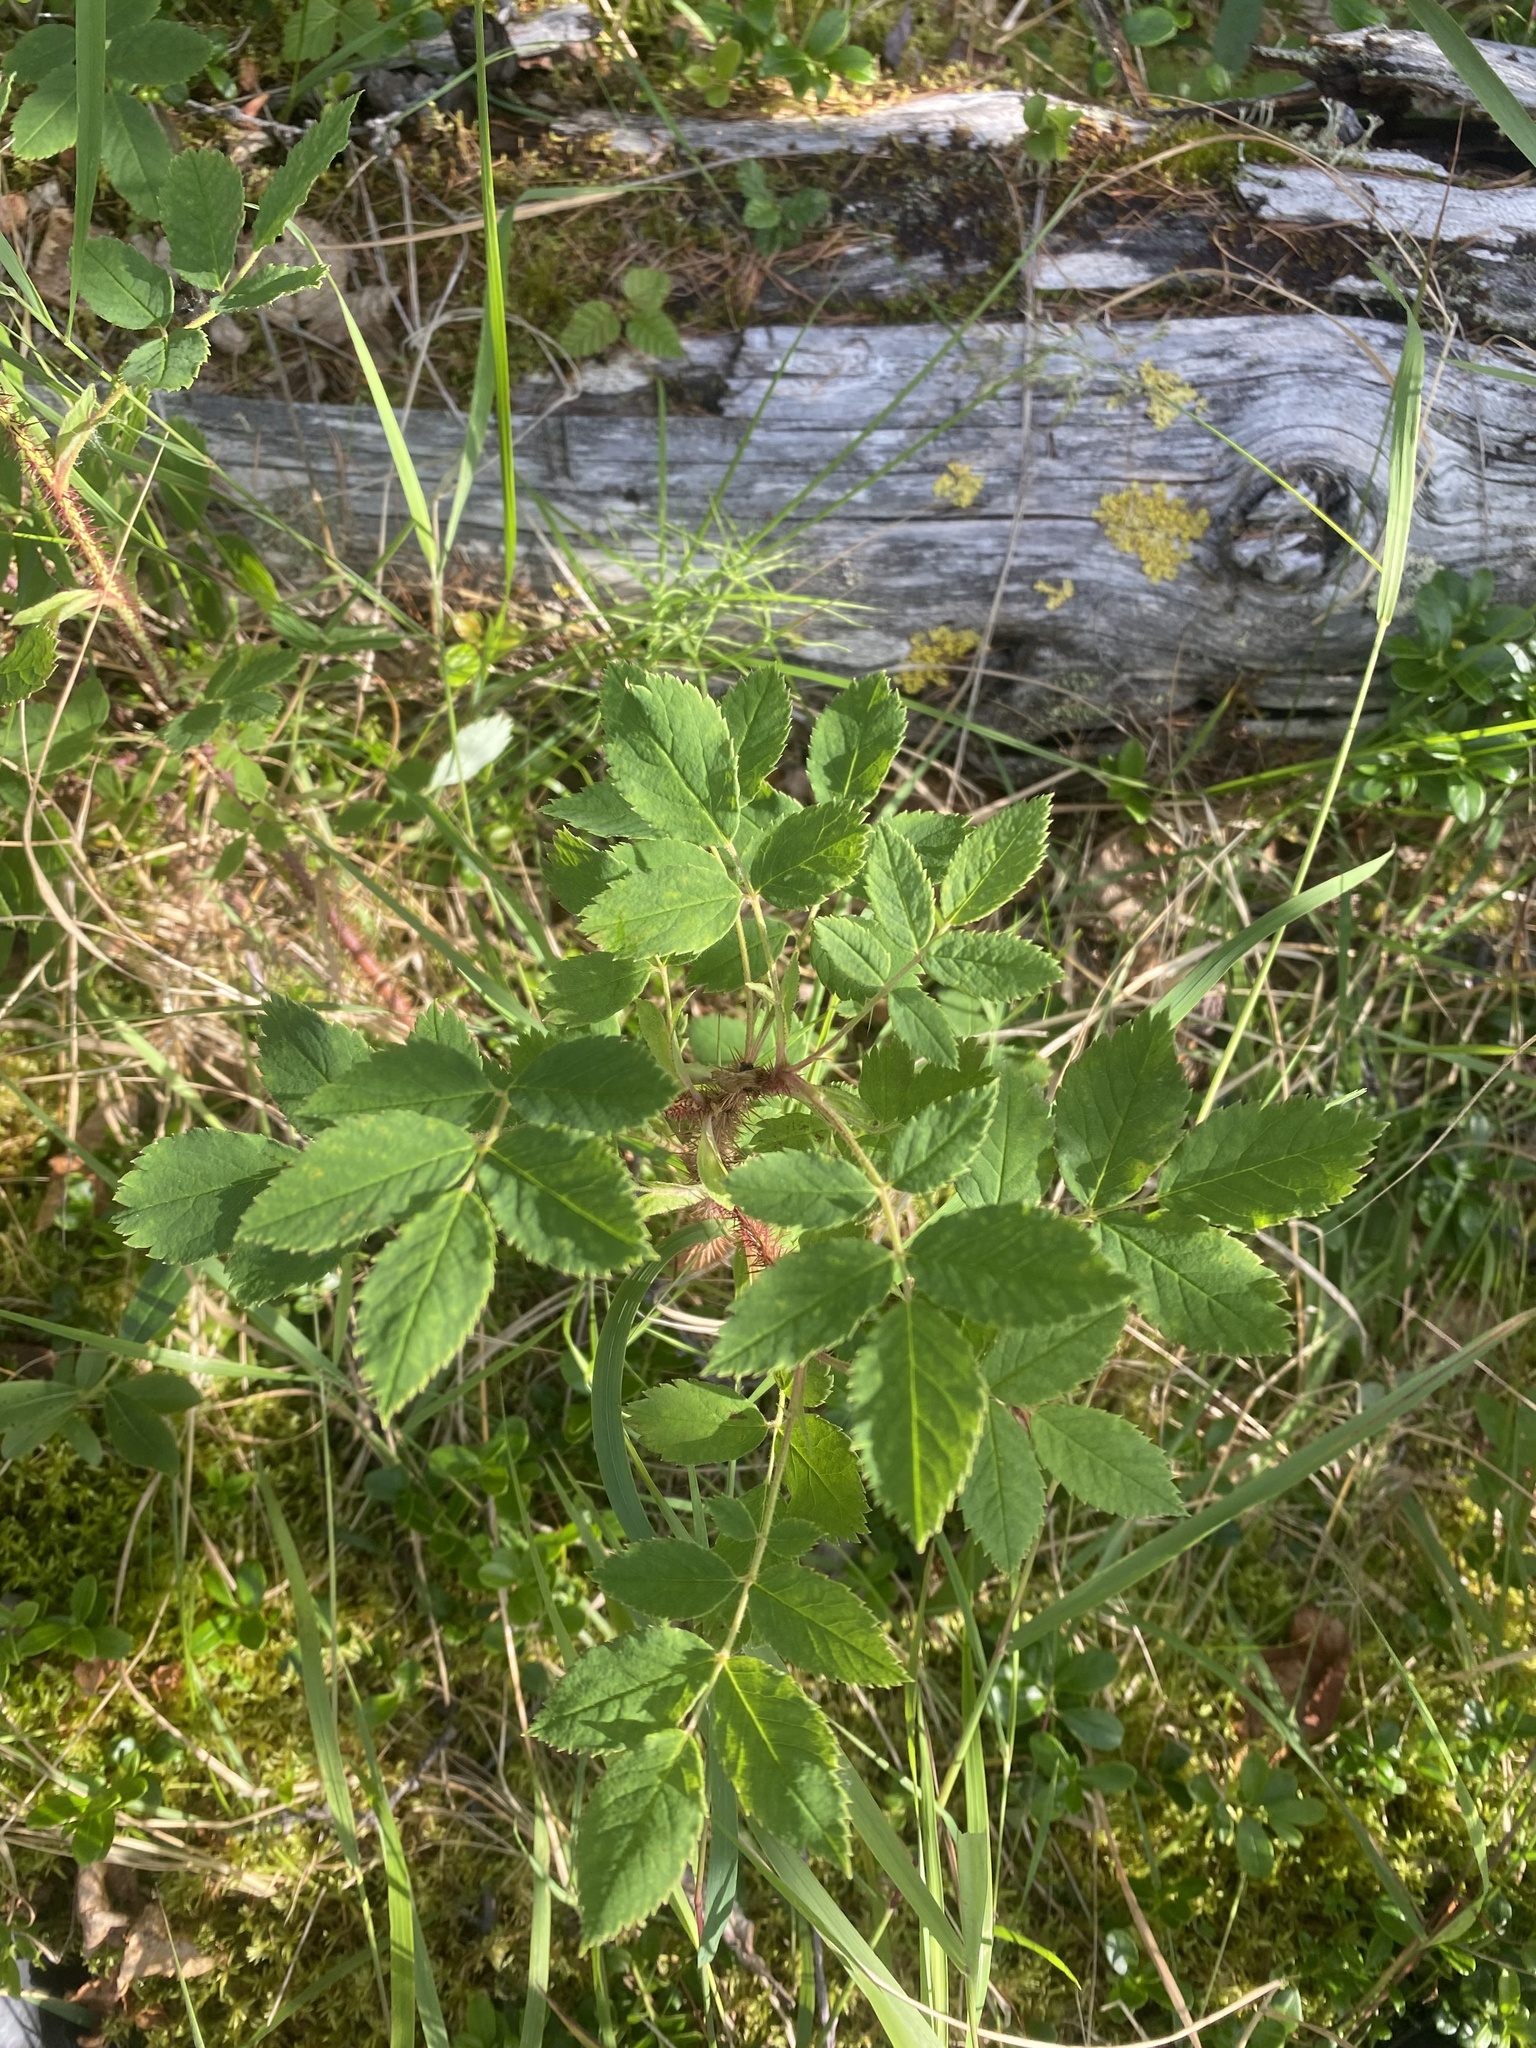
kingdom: Plantae
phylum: Tracheophyta
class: Magnoliopsida
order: Rosales
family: Rosaceae
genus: Rosa
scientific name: Rosa acicularis
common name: Prickly rose
